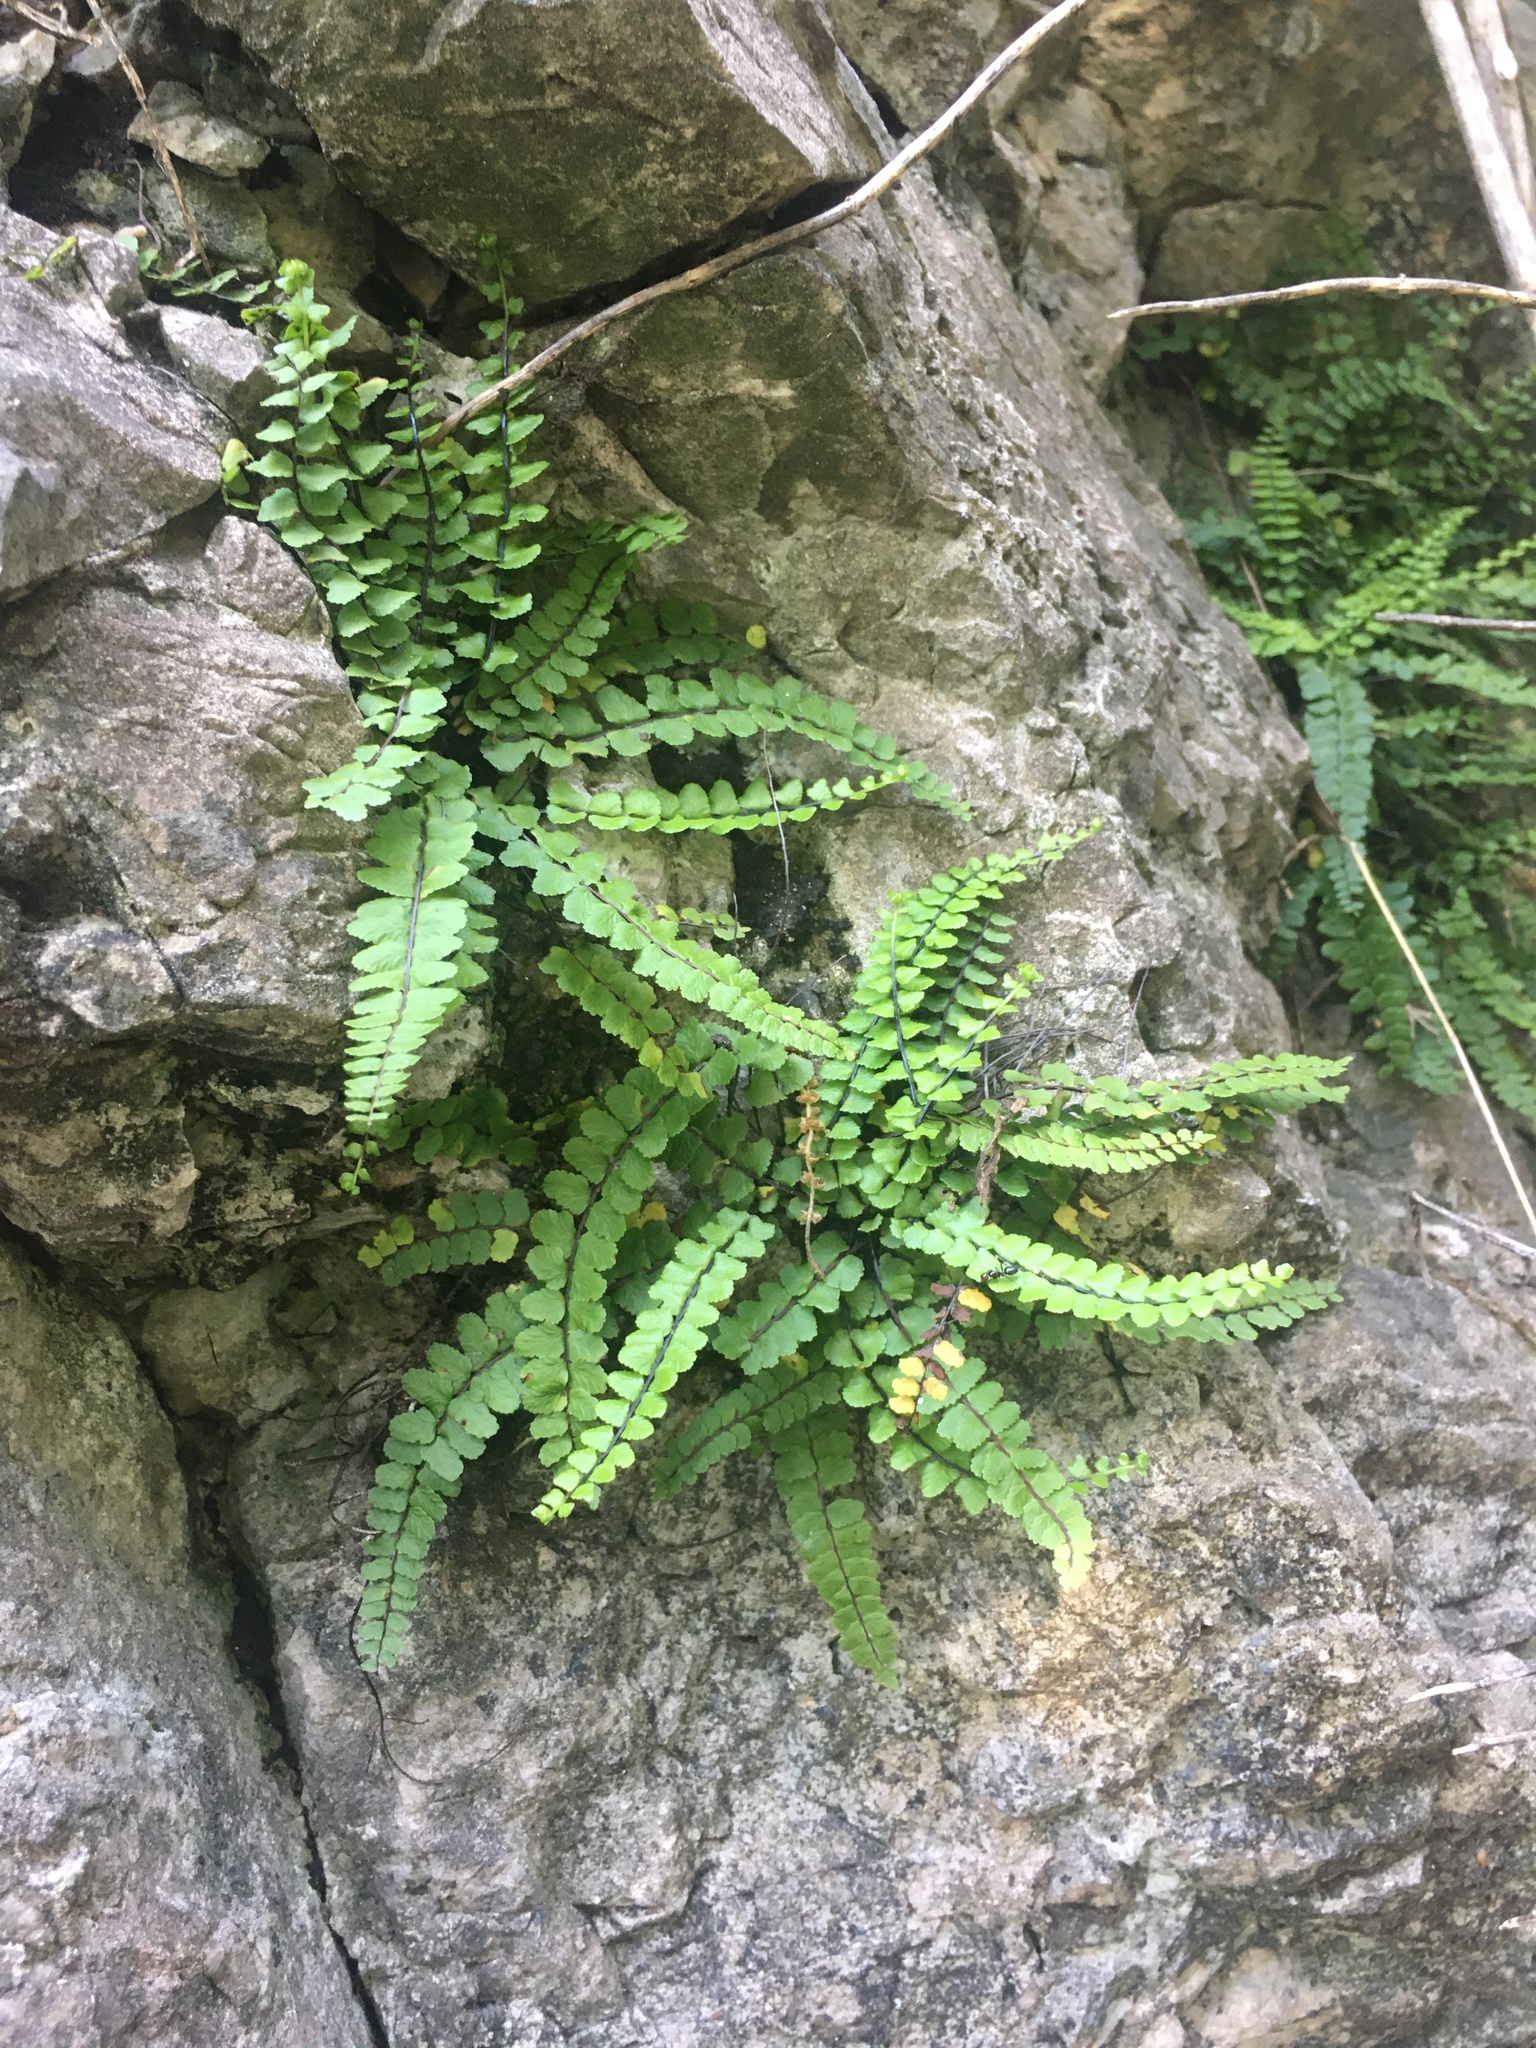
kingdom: Plantae
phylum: Tracheophyta
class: Polypodiopsida
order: Polypodiales
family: Aspleniaceae
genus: Asplenium
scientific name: Asplenium trichomanes
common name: Maidenhair spleenwort
